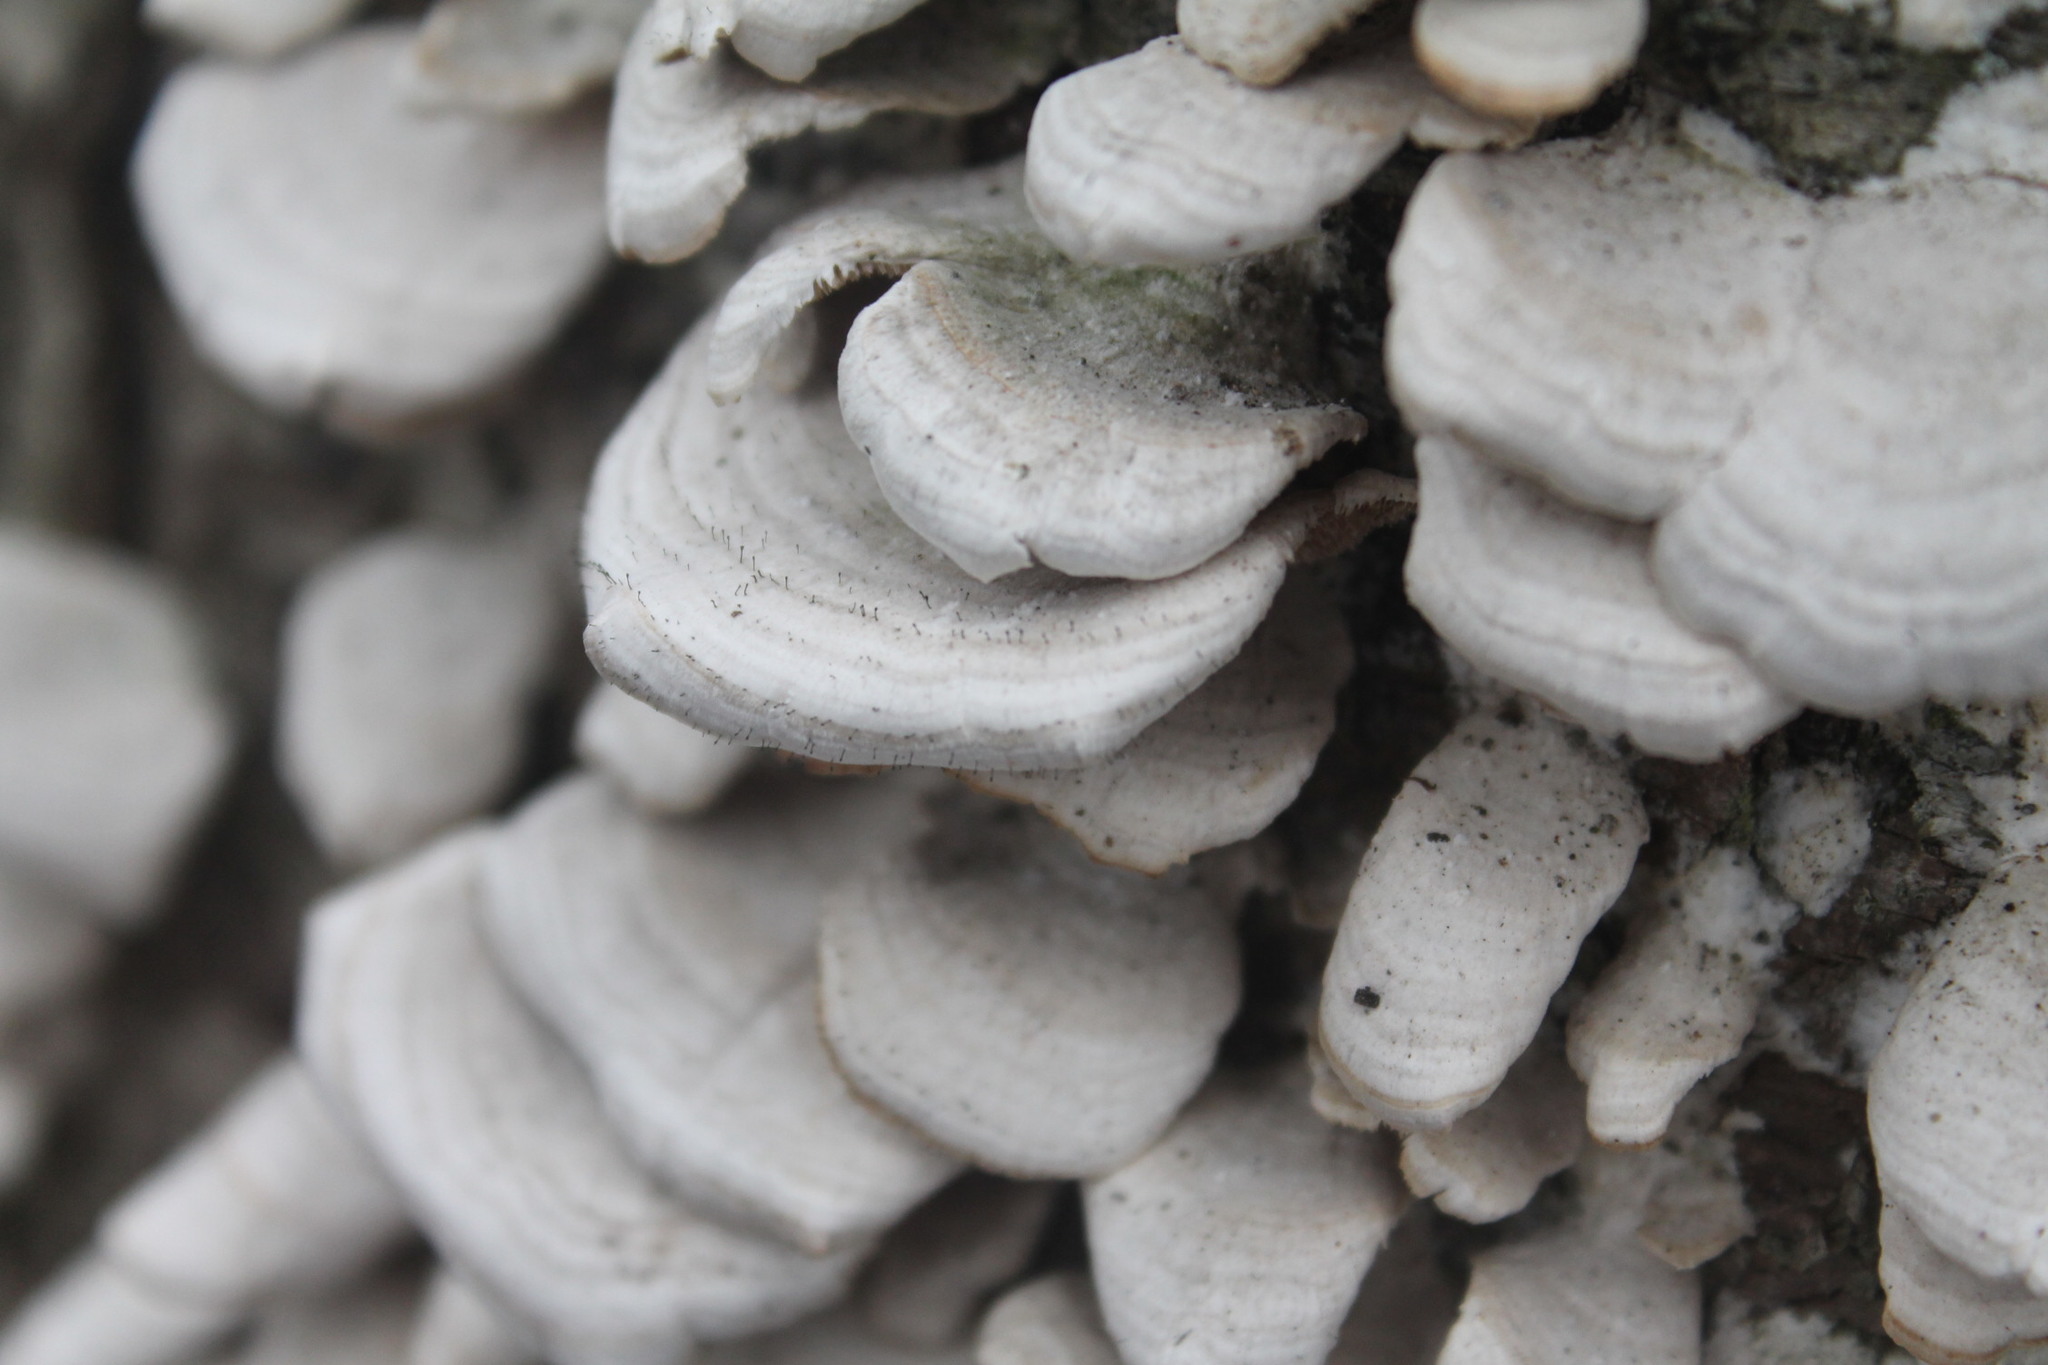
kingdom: Fungi
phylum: Ascomycota
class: Eurotiomycetes
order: Mycocaliciales
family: Mycocaliciaceae
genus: Phaeocalicium
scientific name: Phaeocalicium polyporaeum
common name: Fairy pins
